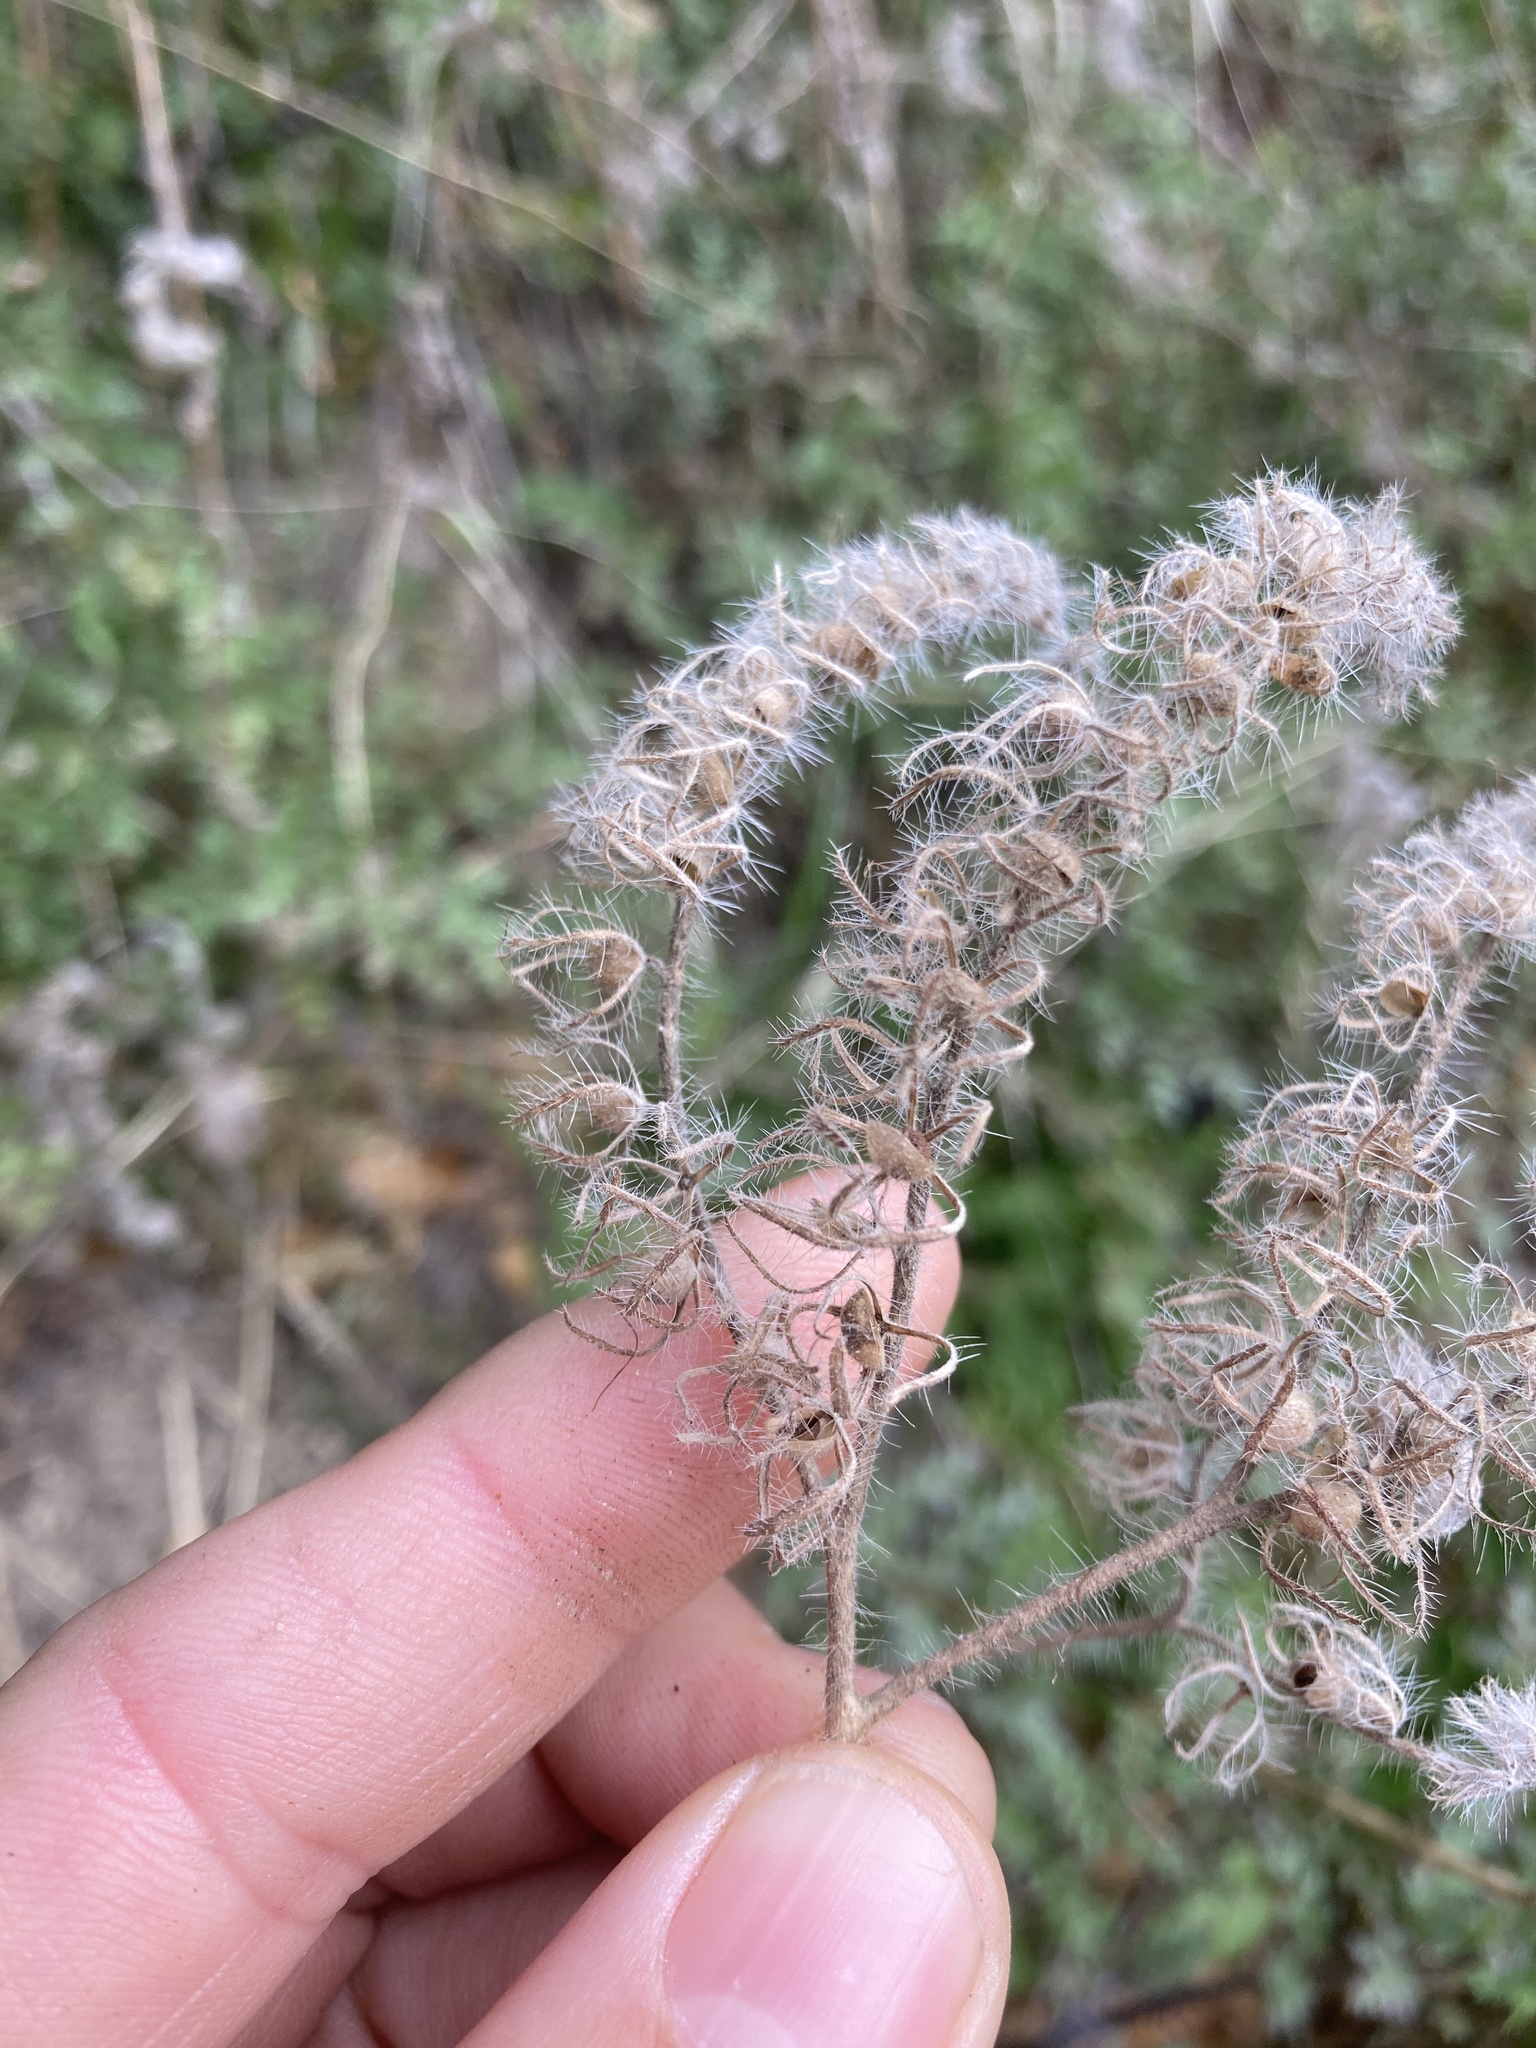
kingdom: Plantae
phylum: Tracheophyta
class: Magnoliopsida
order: Boraginales
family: Hydrophyllaceae
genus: Phacelia
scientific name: Phacelia cicutaria
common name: Caterpillar phacelia
